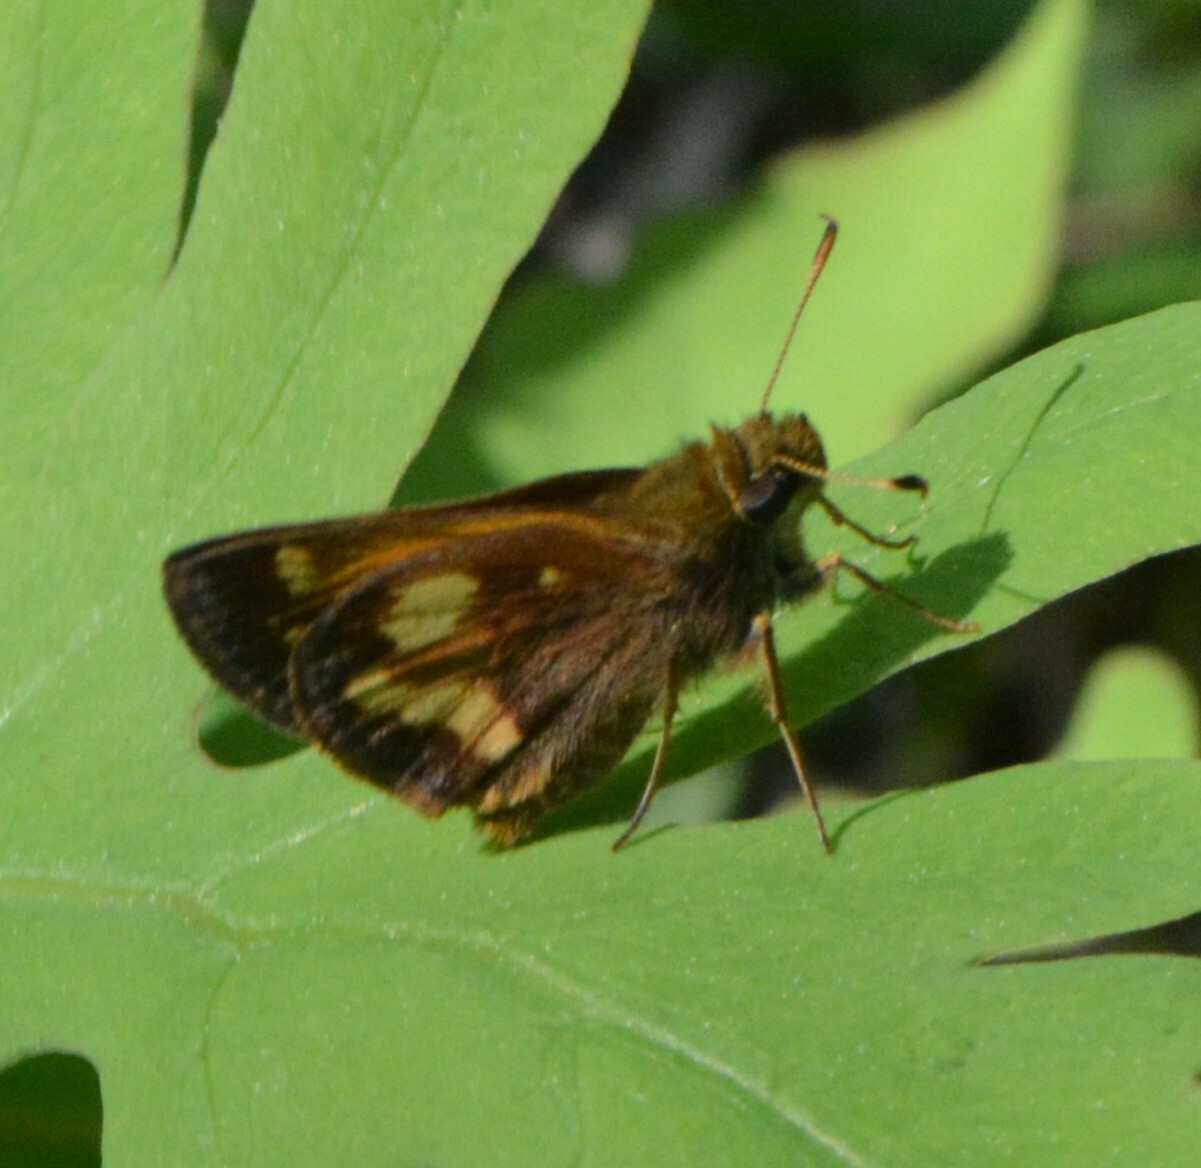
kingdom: Animalia
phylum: Arthropoda
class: Insecta
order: Lepidoptera
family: Hesperiidae
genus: Lon
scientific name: Lon hobomok
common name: Hobomok skipper
